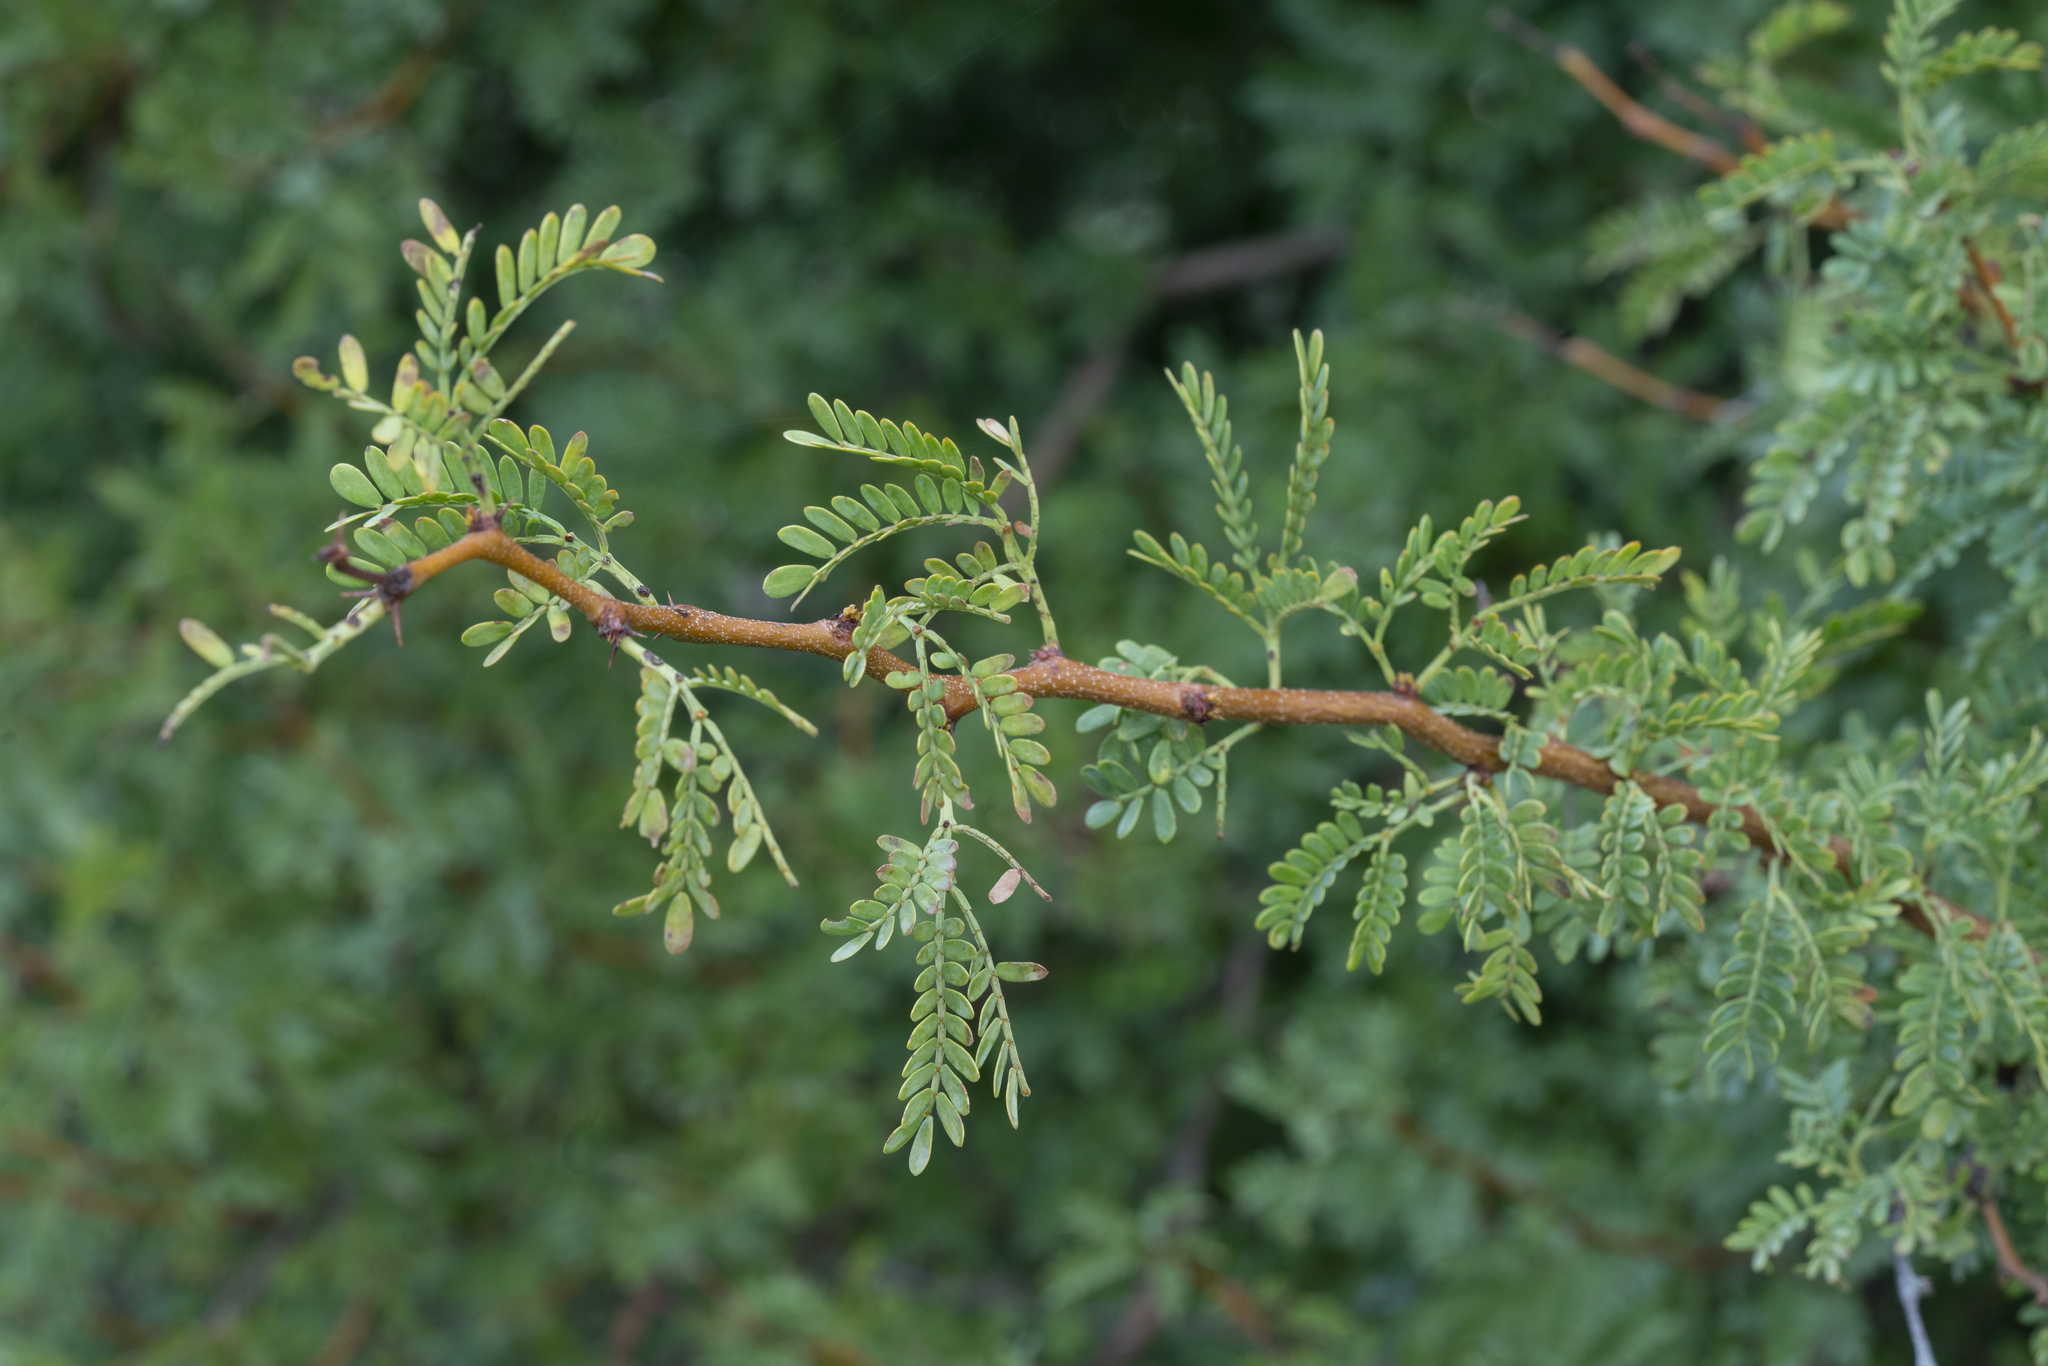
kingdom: Plantae
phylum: Tracheophyta
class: Magnoliopsida
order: Fabales
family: Fabaceae
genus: Vachellia
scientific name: Vachellia karroo
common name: Sweet thorn
